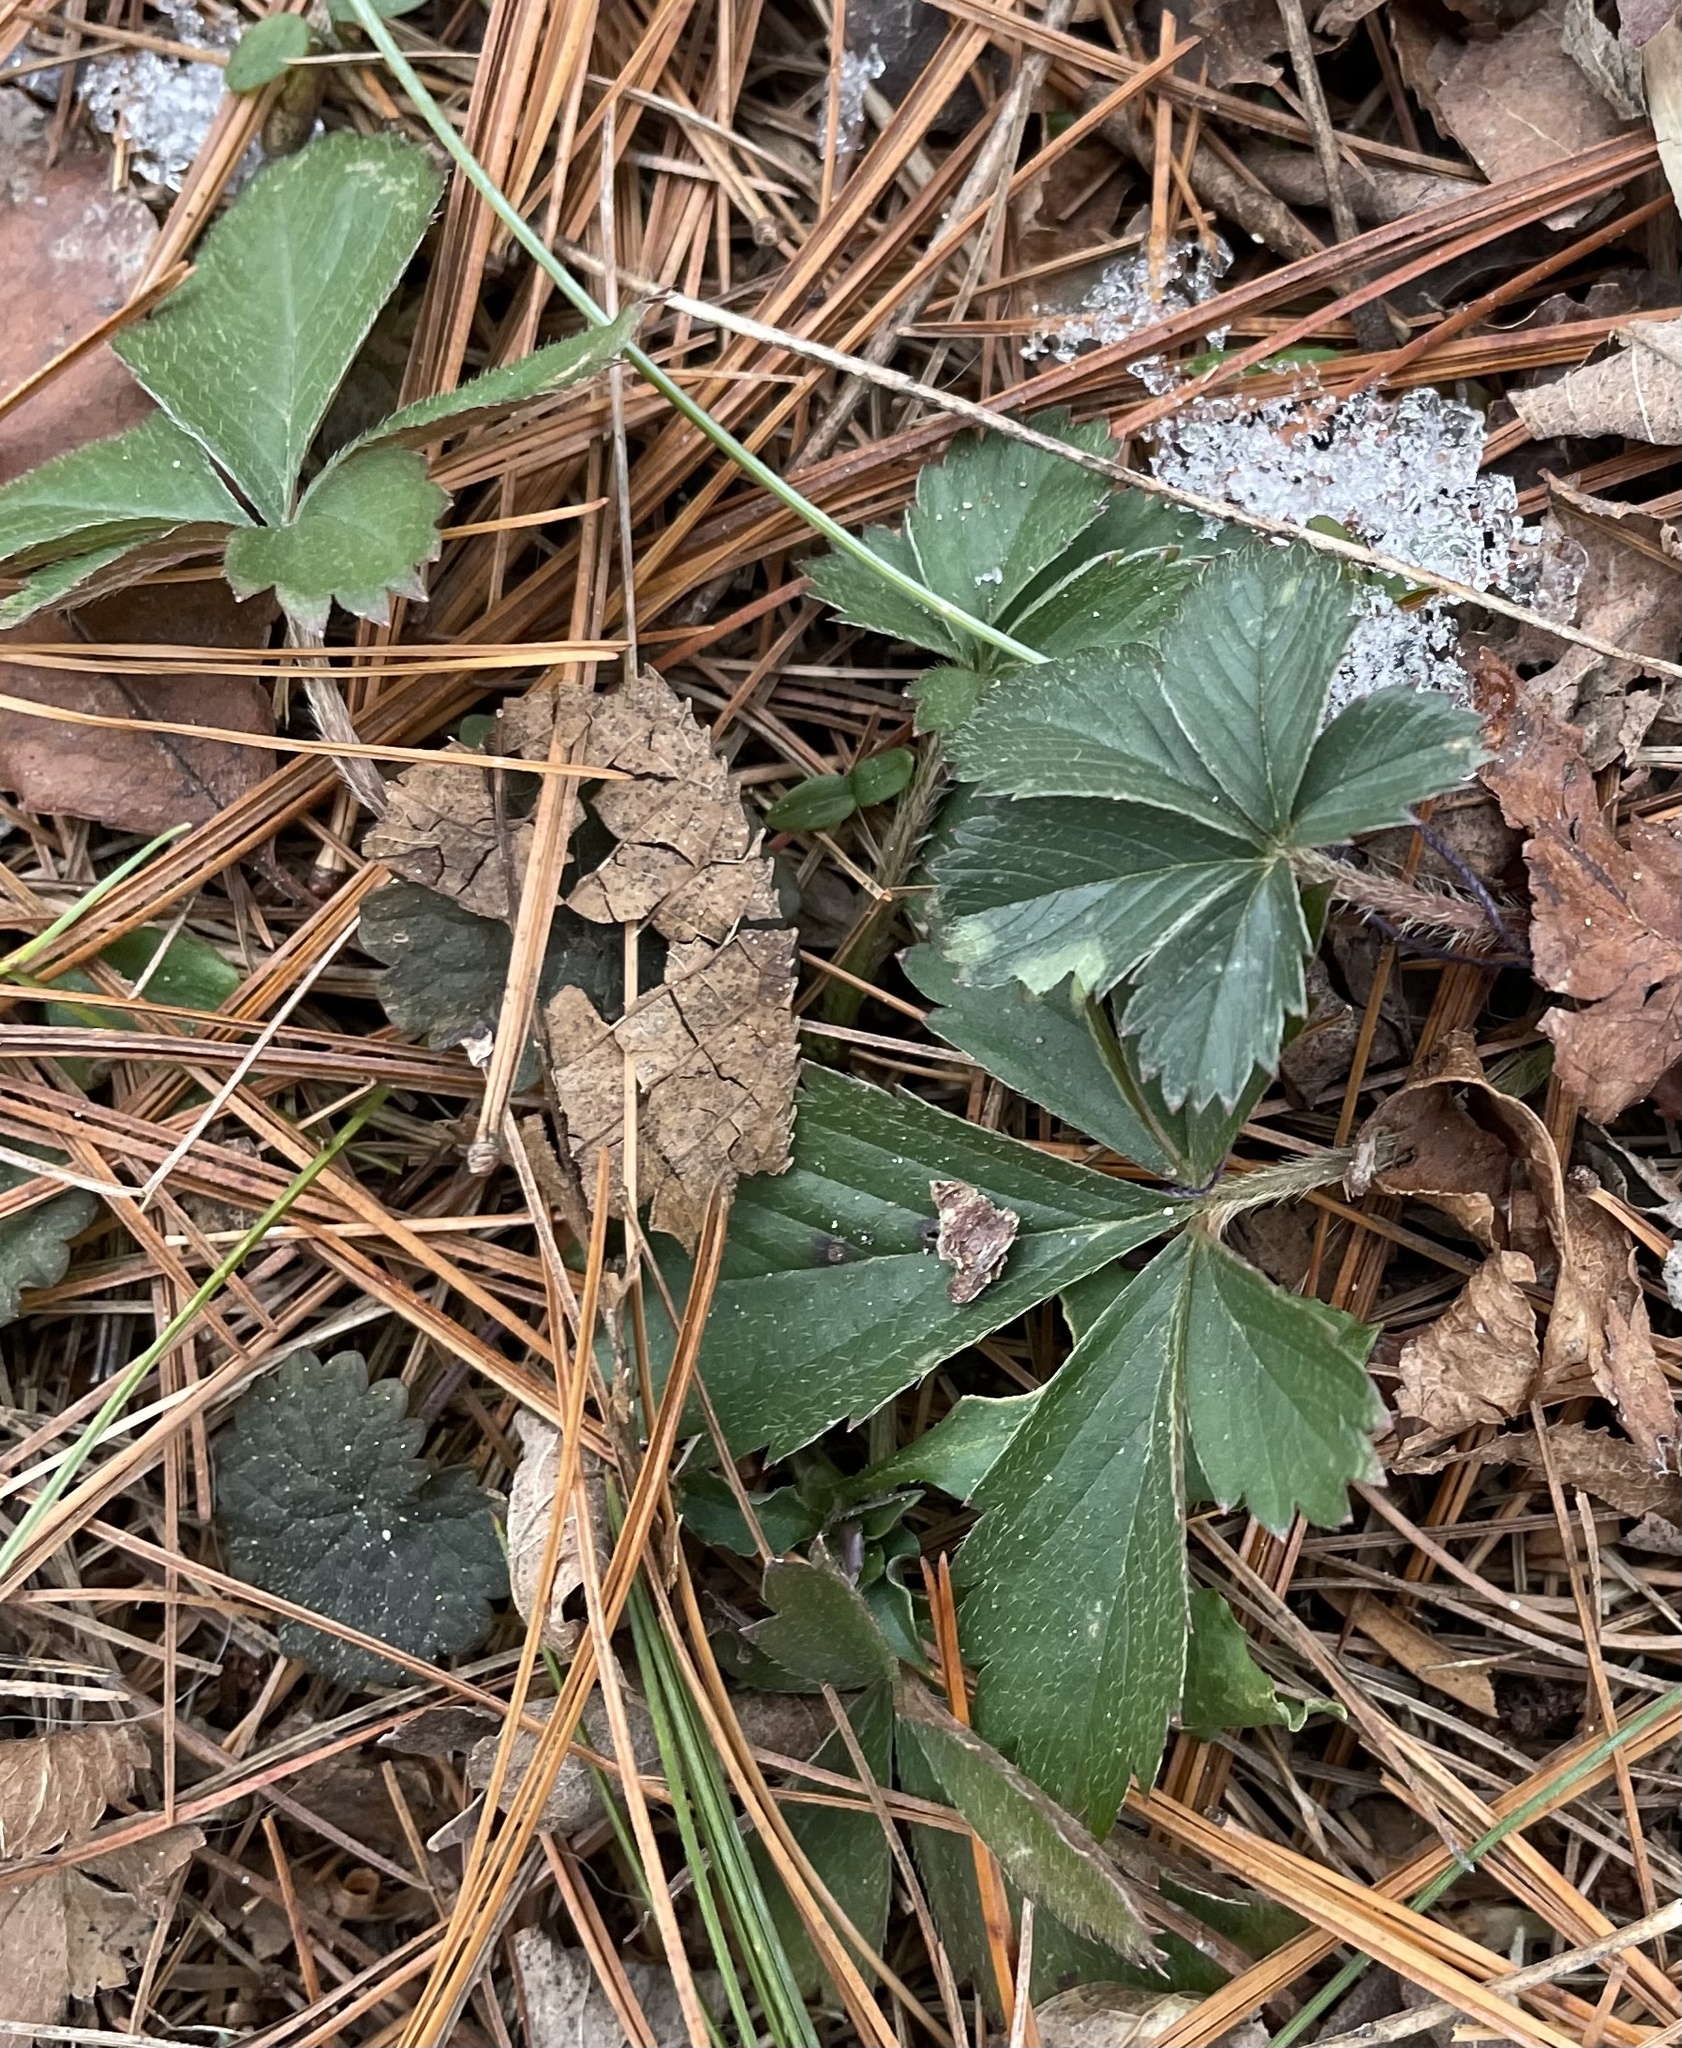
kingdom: Plantae
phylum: Tracheophyta
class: Magnoliopsida
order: Rosales
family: Rosaceae
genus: Potentilla
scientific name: Potentilla canadensis
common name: Canada cinquefoil
